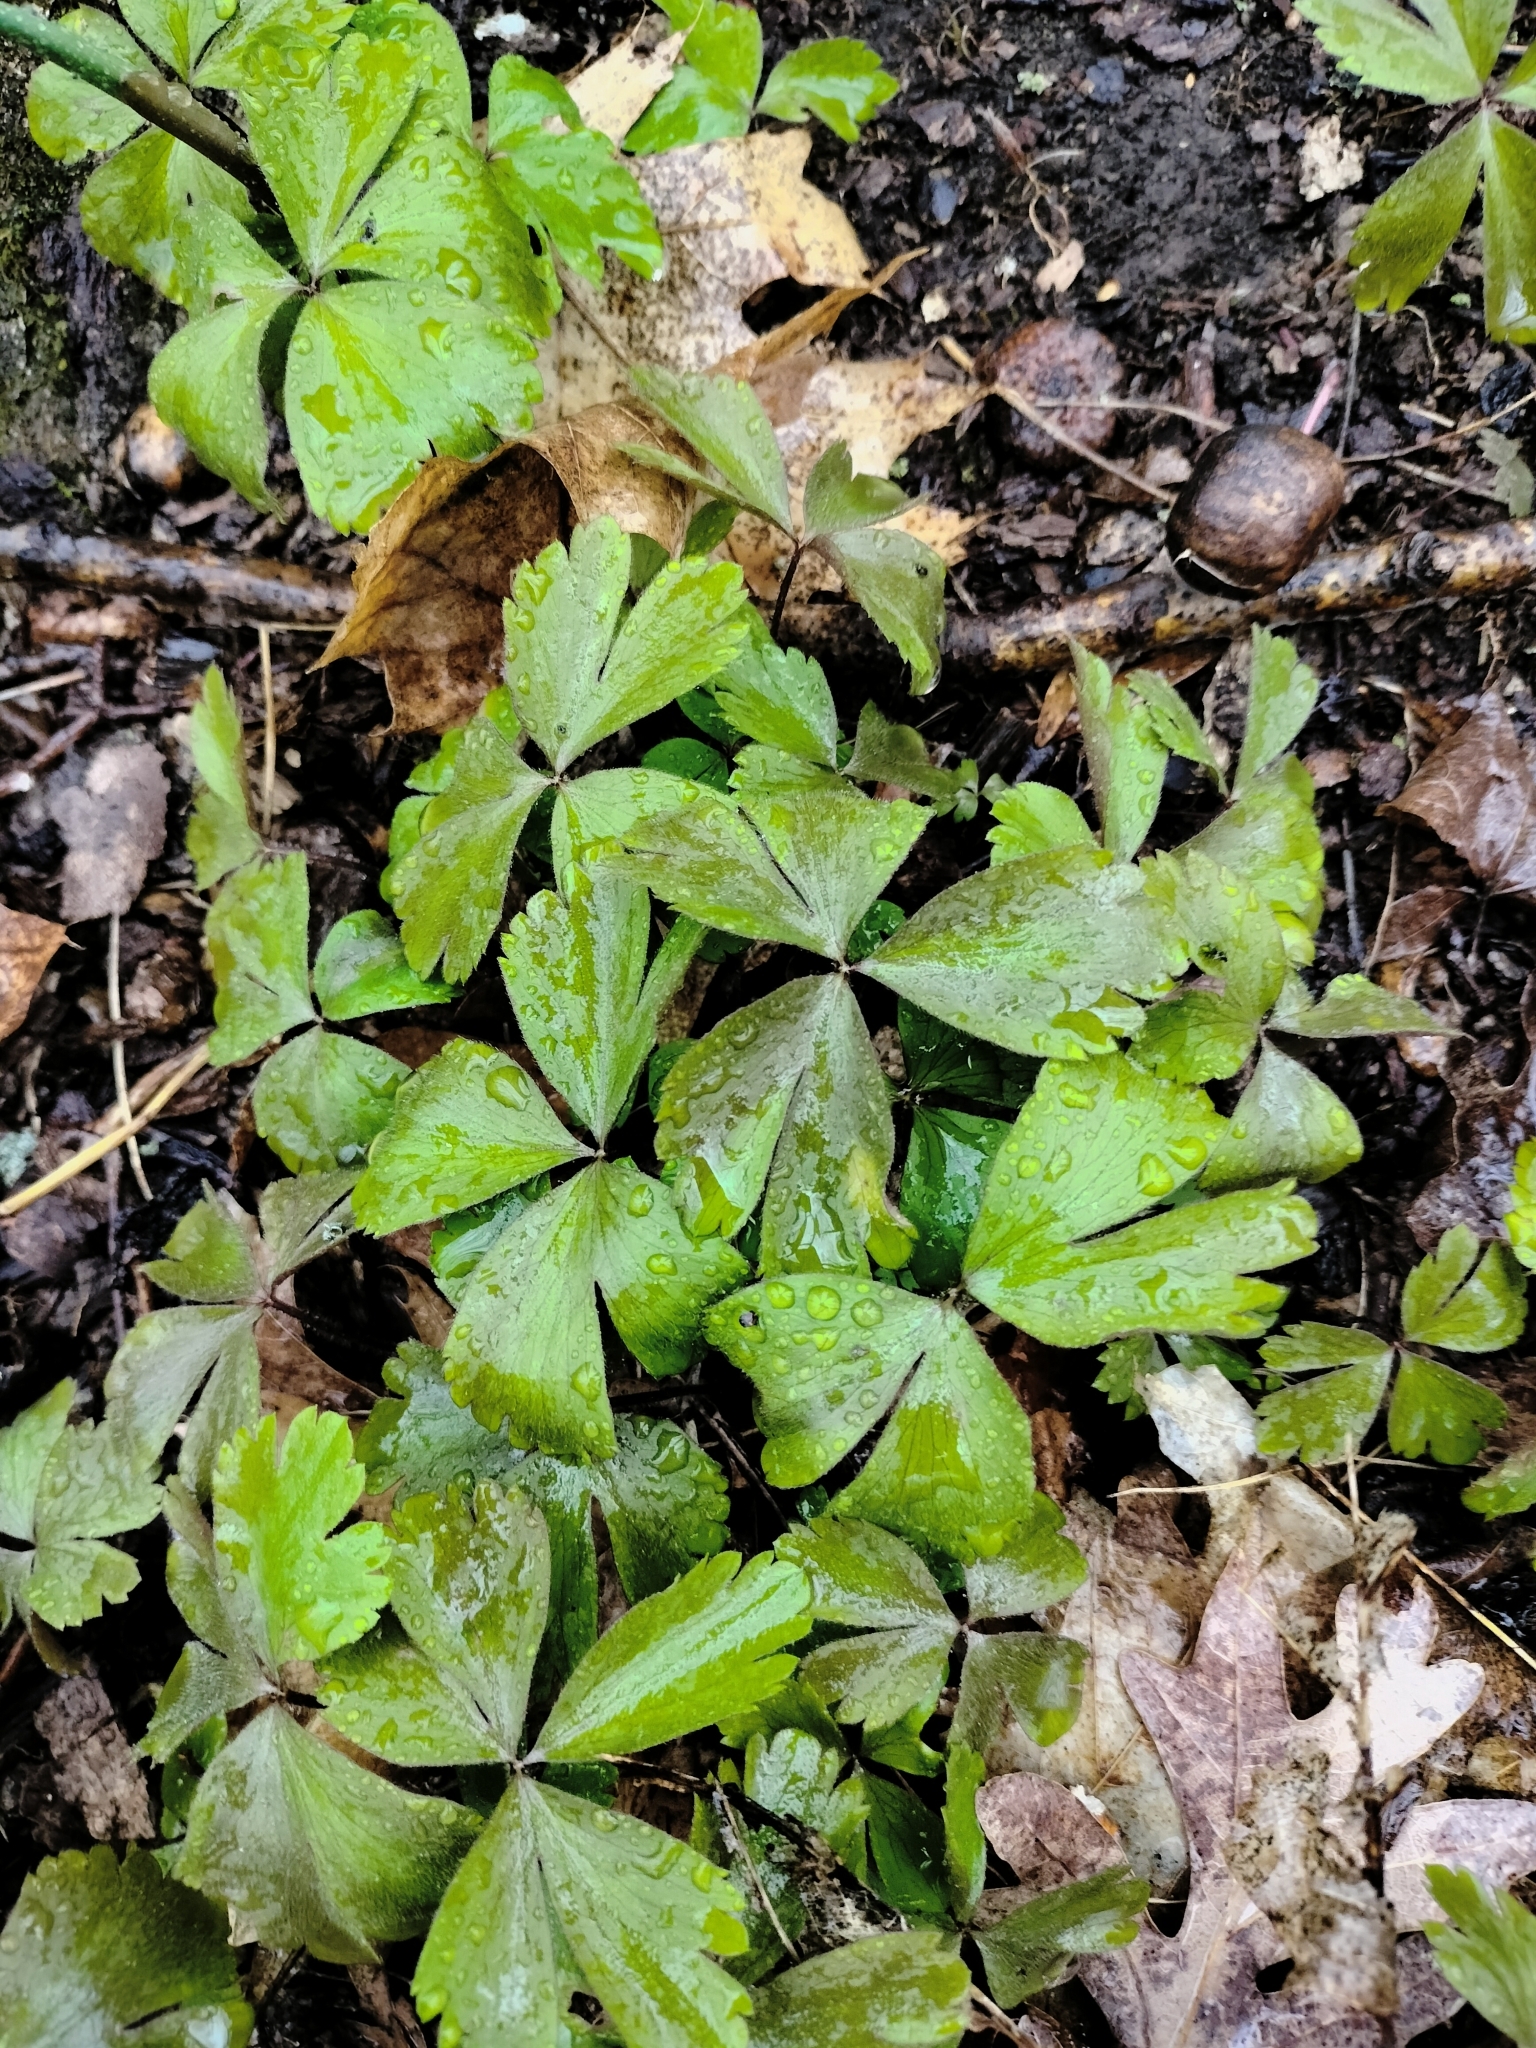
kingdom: Plantae
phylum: Tracheophyta
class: Magnoliopsida
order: Ranunculales
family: Ranunculaceae
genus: Anemone
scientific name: Anemone quinquefolia
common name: Wood anemone
